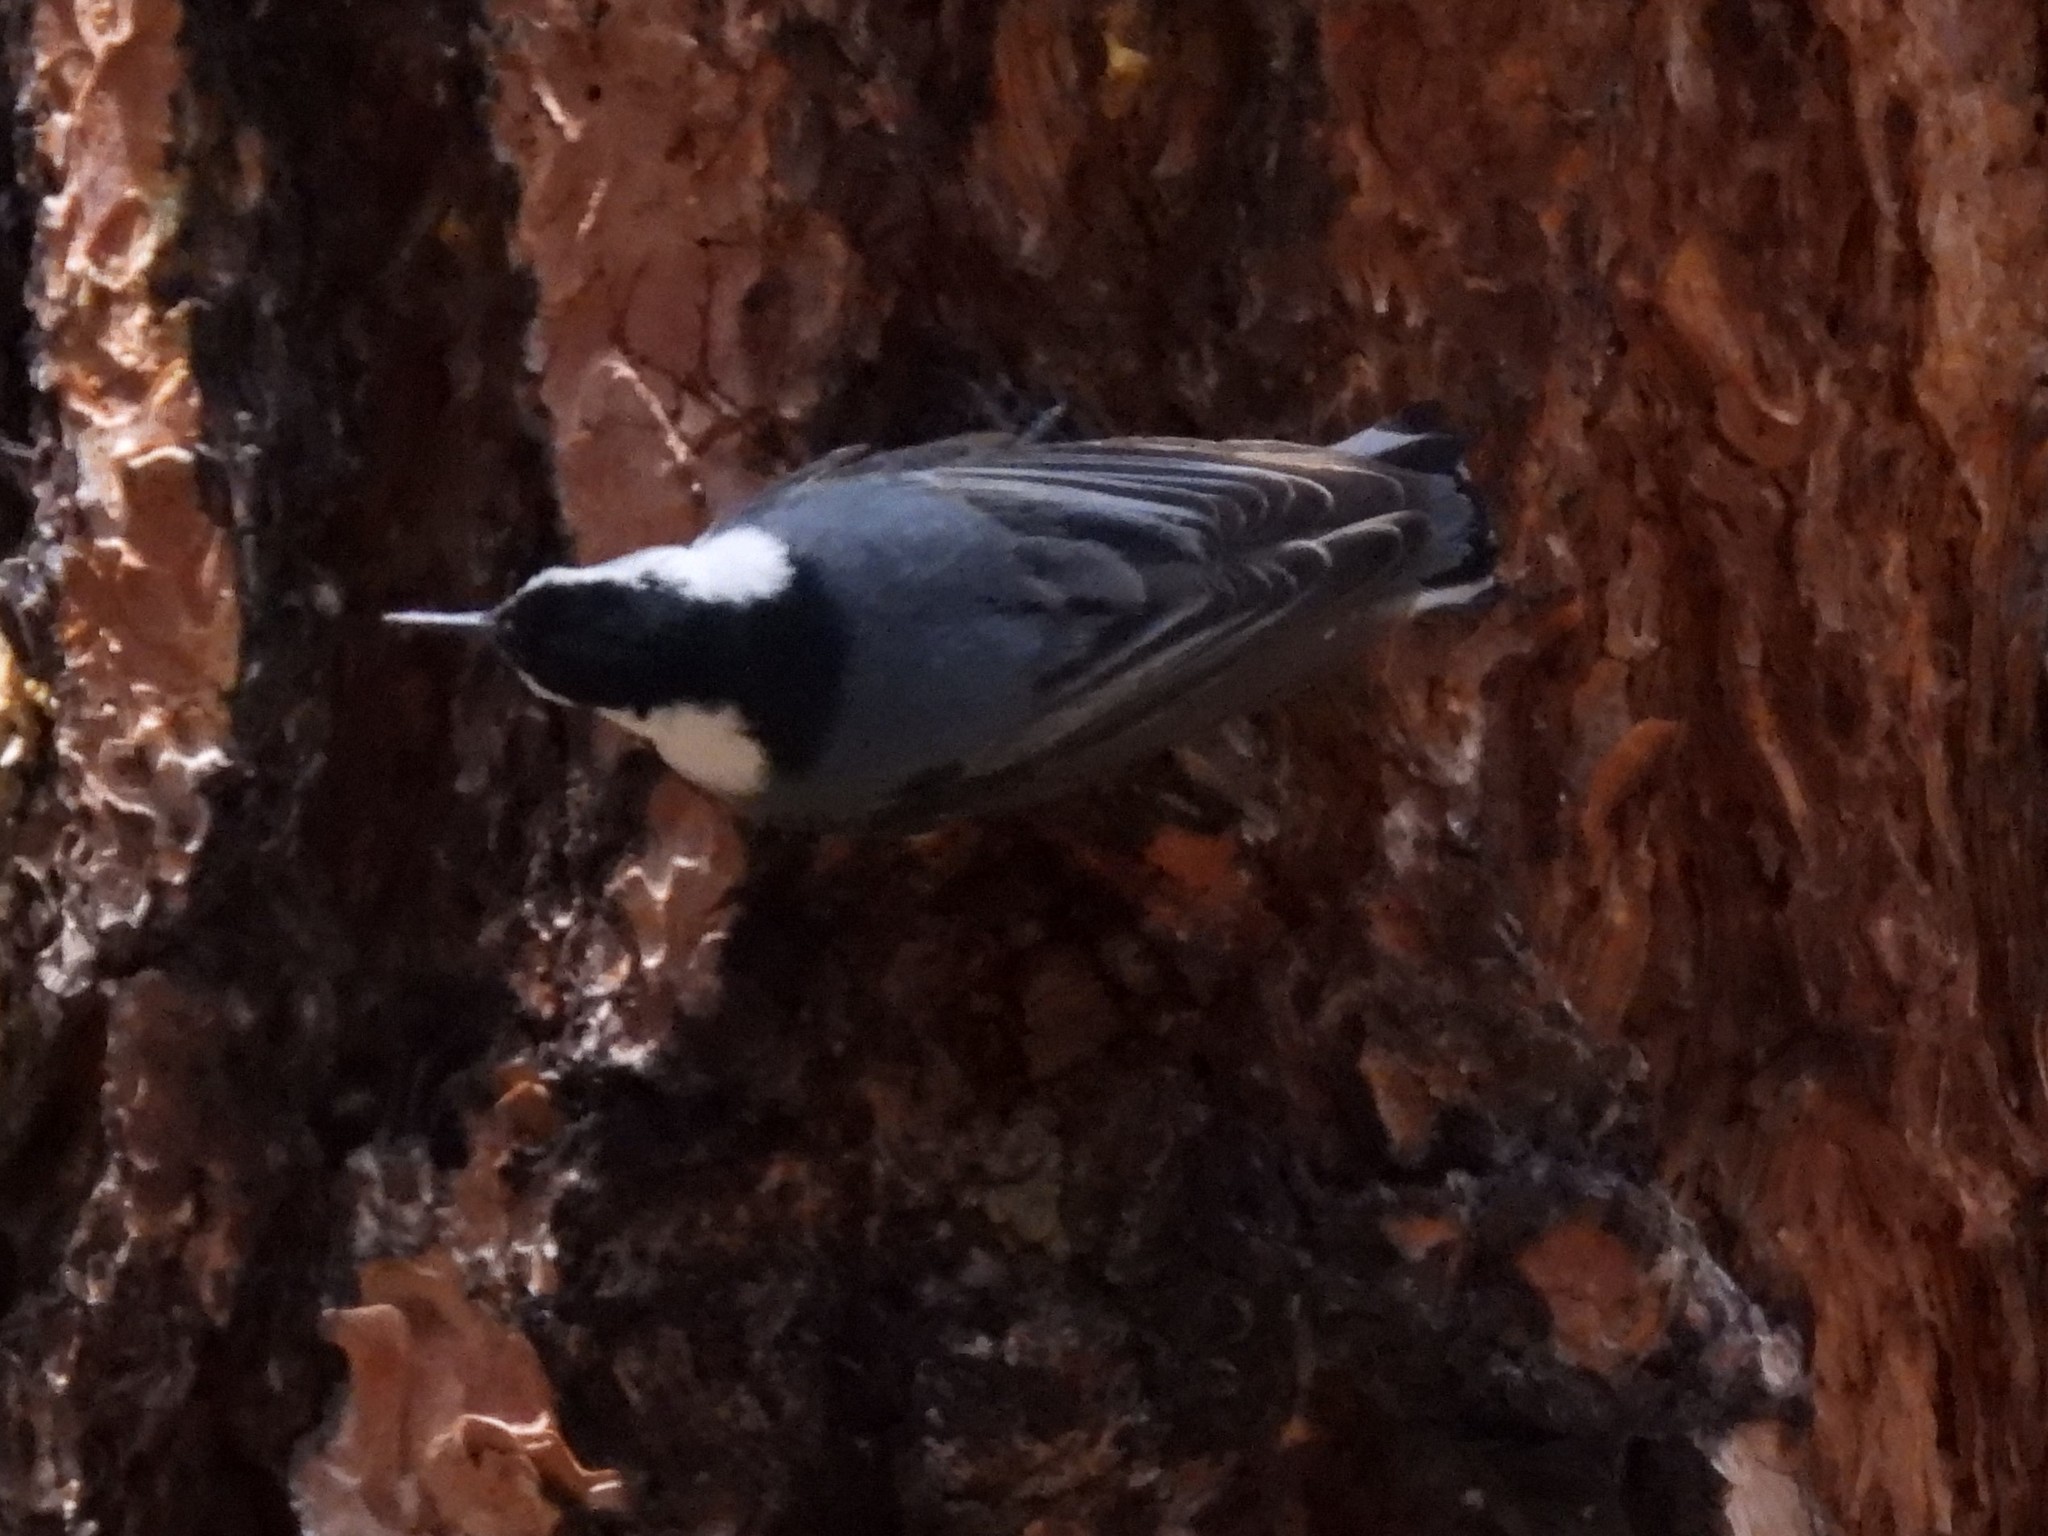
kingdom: Animalia
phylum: Chordata
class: Aves
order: Passeriformes
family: Sittidae
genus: Sitta
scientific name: Sitta carolinensis
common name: White-breasted nuthatch
